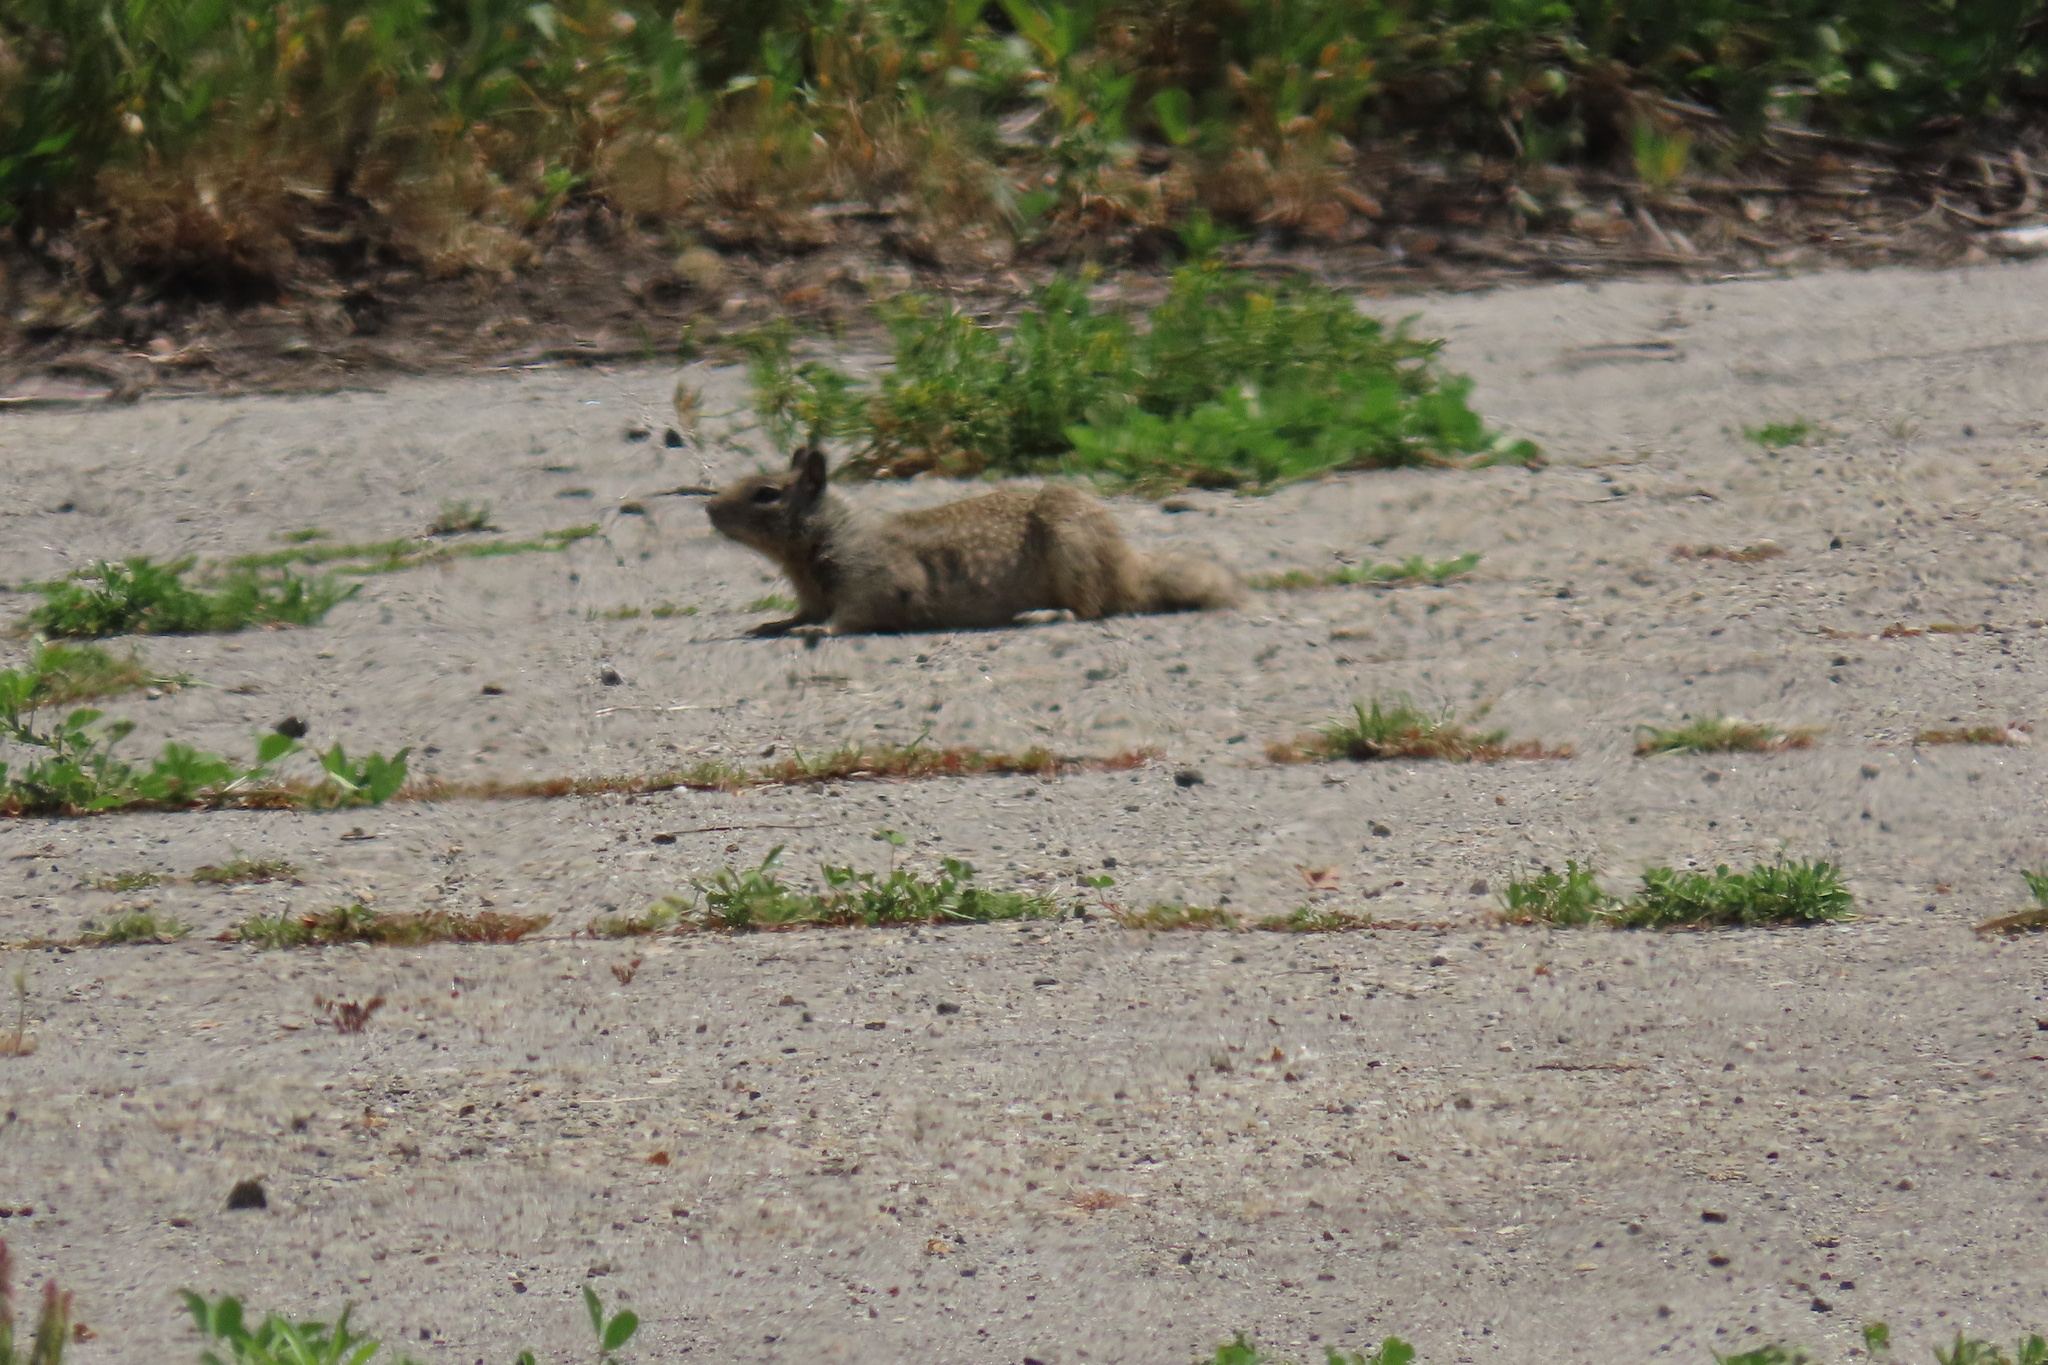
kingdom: Animalia
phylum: Chordata
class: Mammalia
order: Rodentia
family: Sciuridae
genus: Otospermophilus
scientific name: Otospermophilus beecheyi
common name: California ground squirrel
